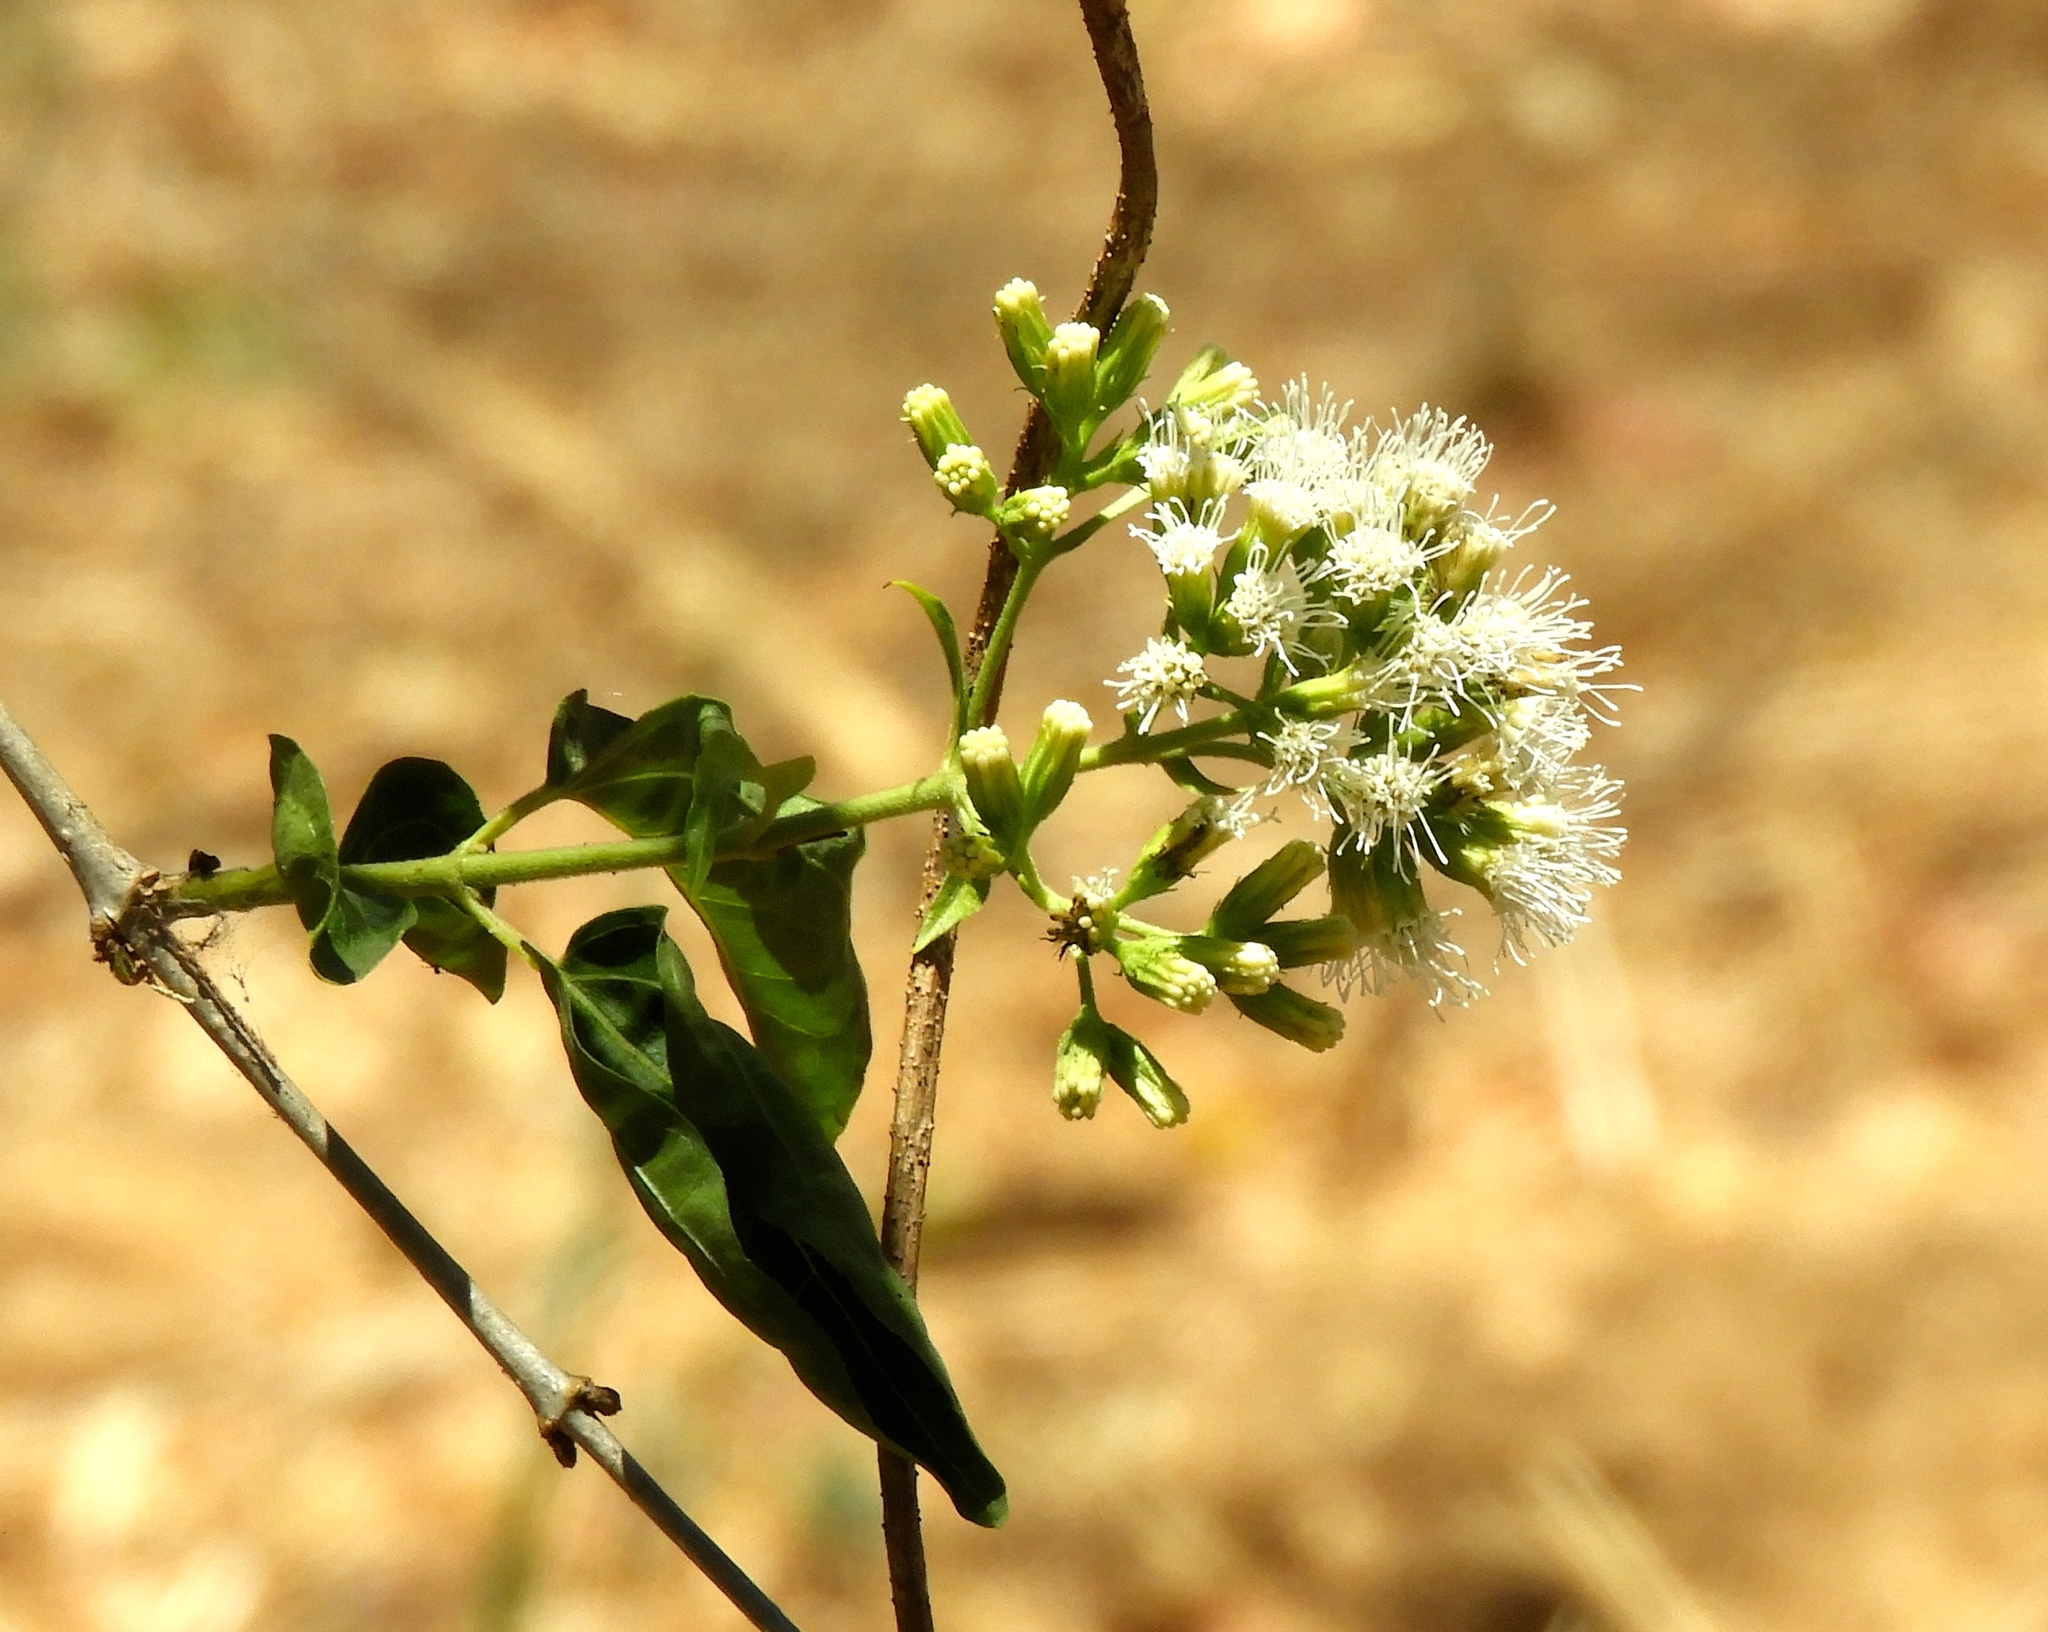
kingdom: Plantae
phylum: Tracheophyta
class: Magnoliopsida
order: Asterales
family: Asteraceae
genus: Koanophyllon
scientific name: Koanophyllon albicaule
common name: Old women's walking stick
